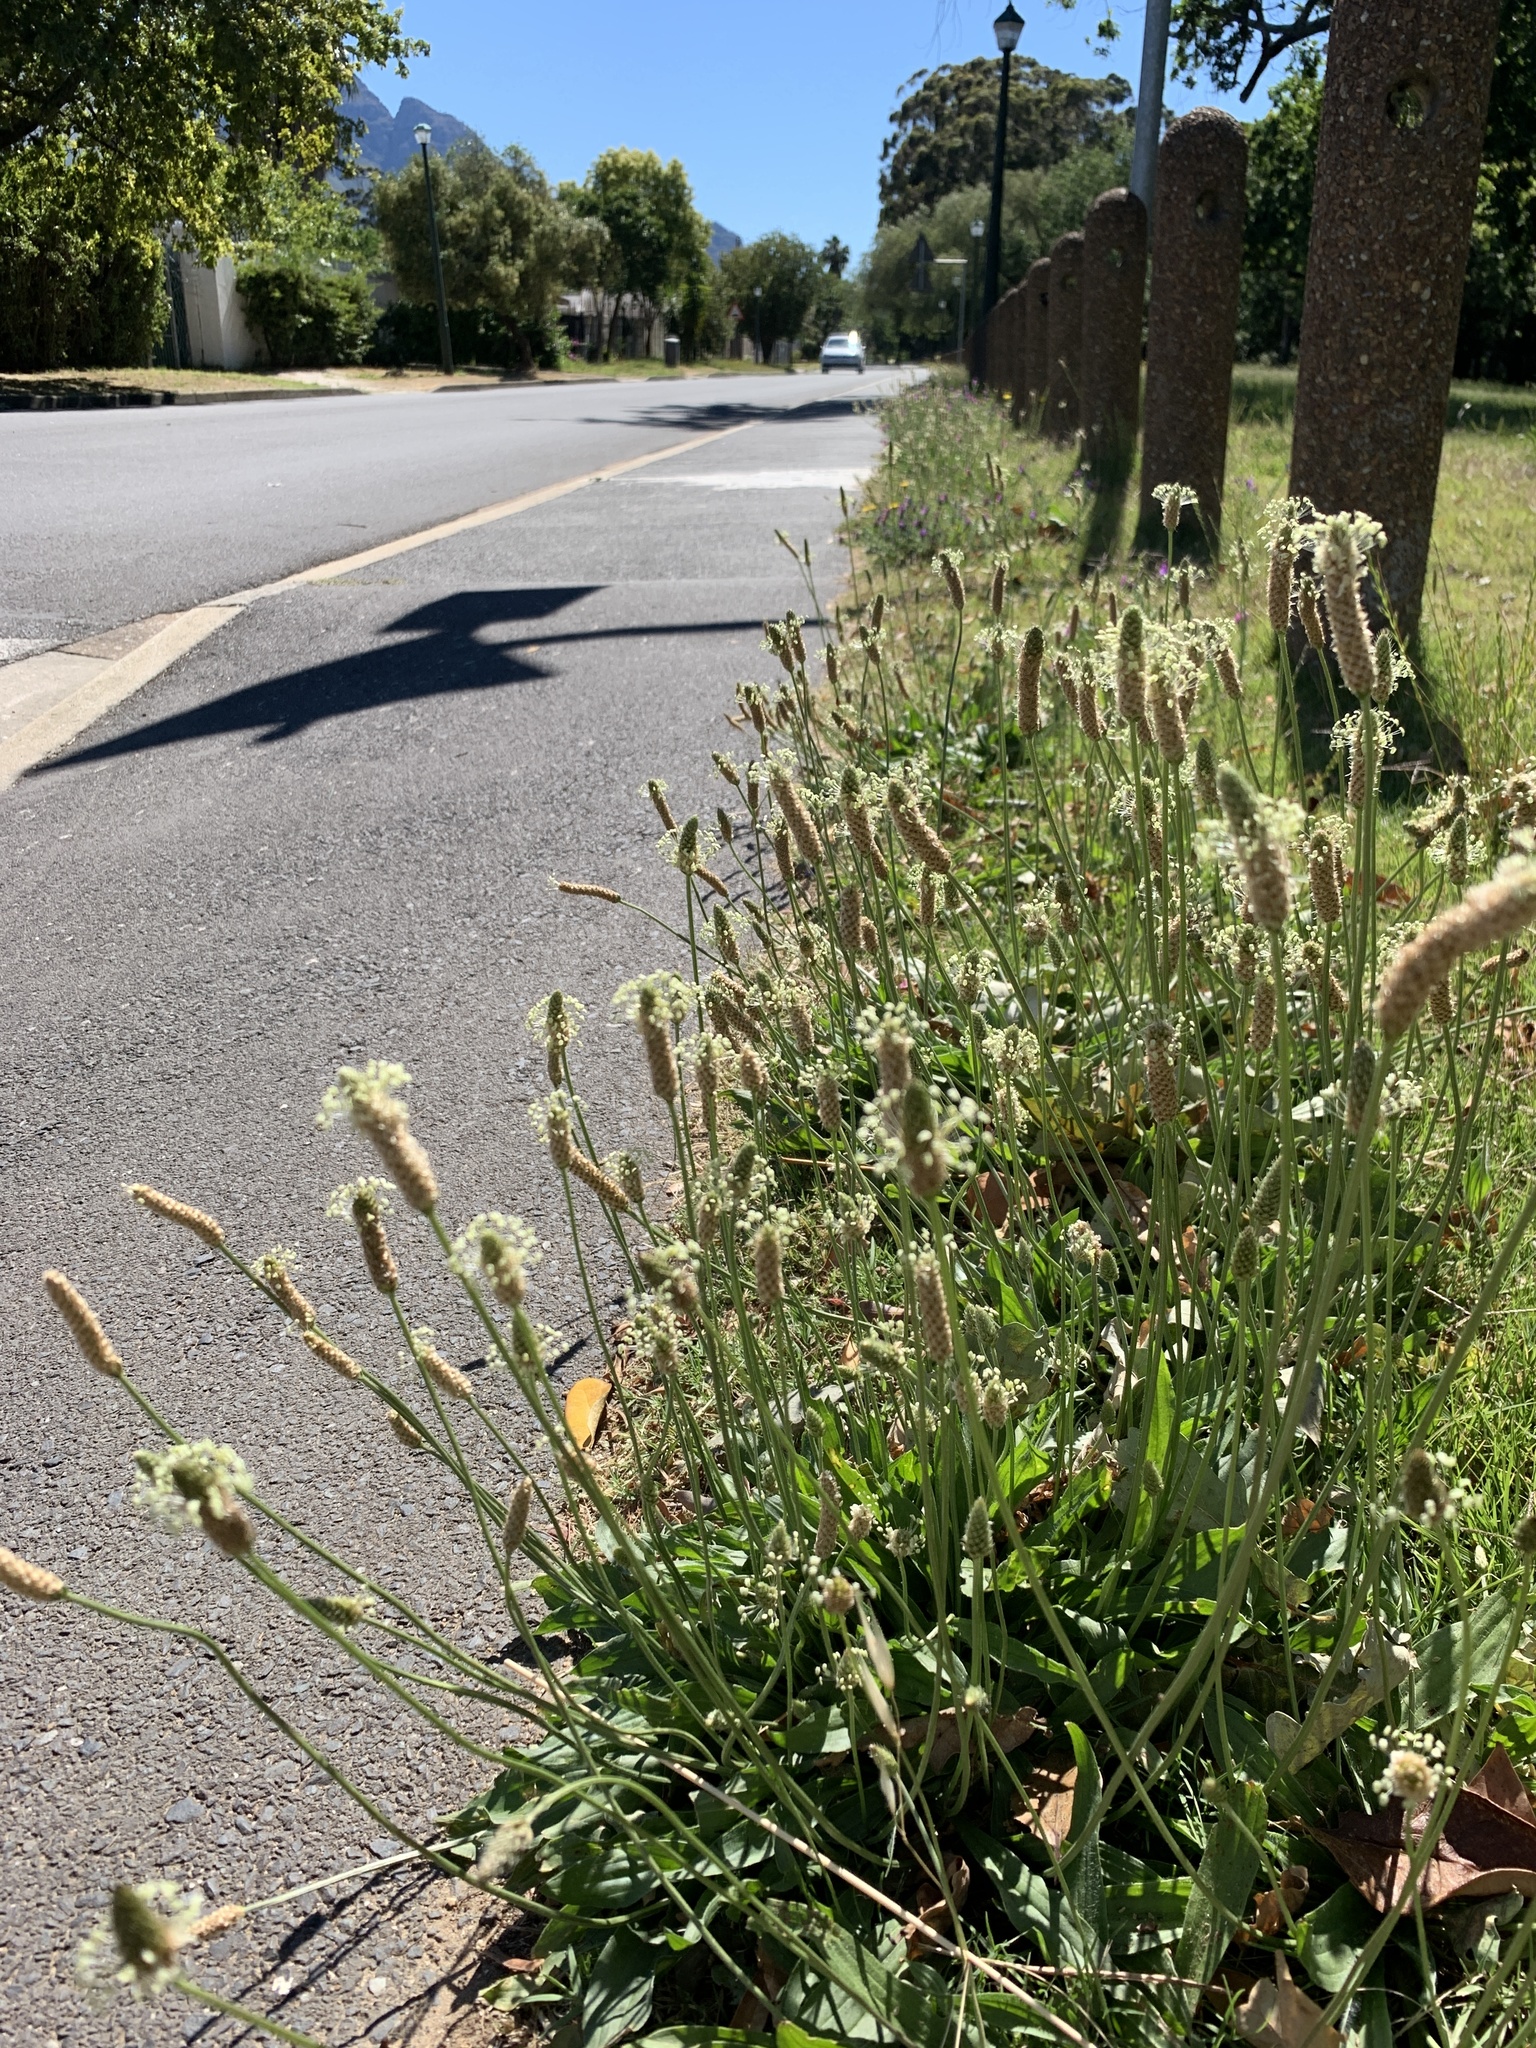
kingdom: Plantae
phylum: Tracheophyta
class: Magnoliopsida
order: Lamiales
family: Plantaginaceae
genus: Plantago
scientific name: Plantago lanceolata
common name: Ribwort plantain
